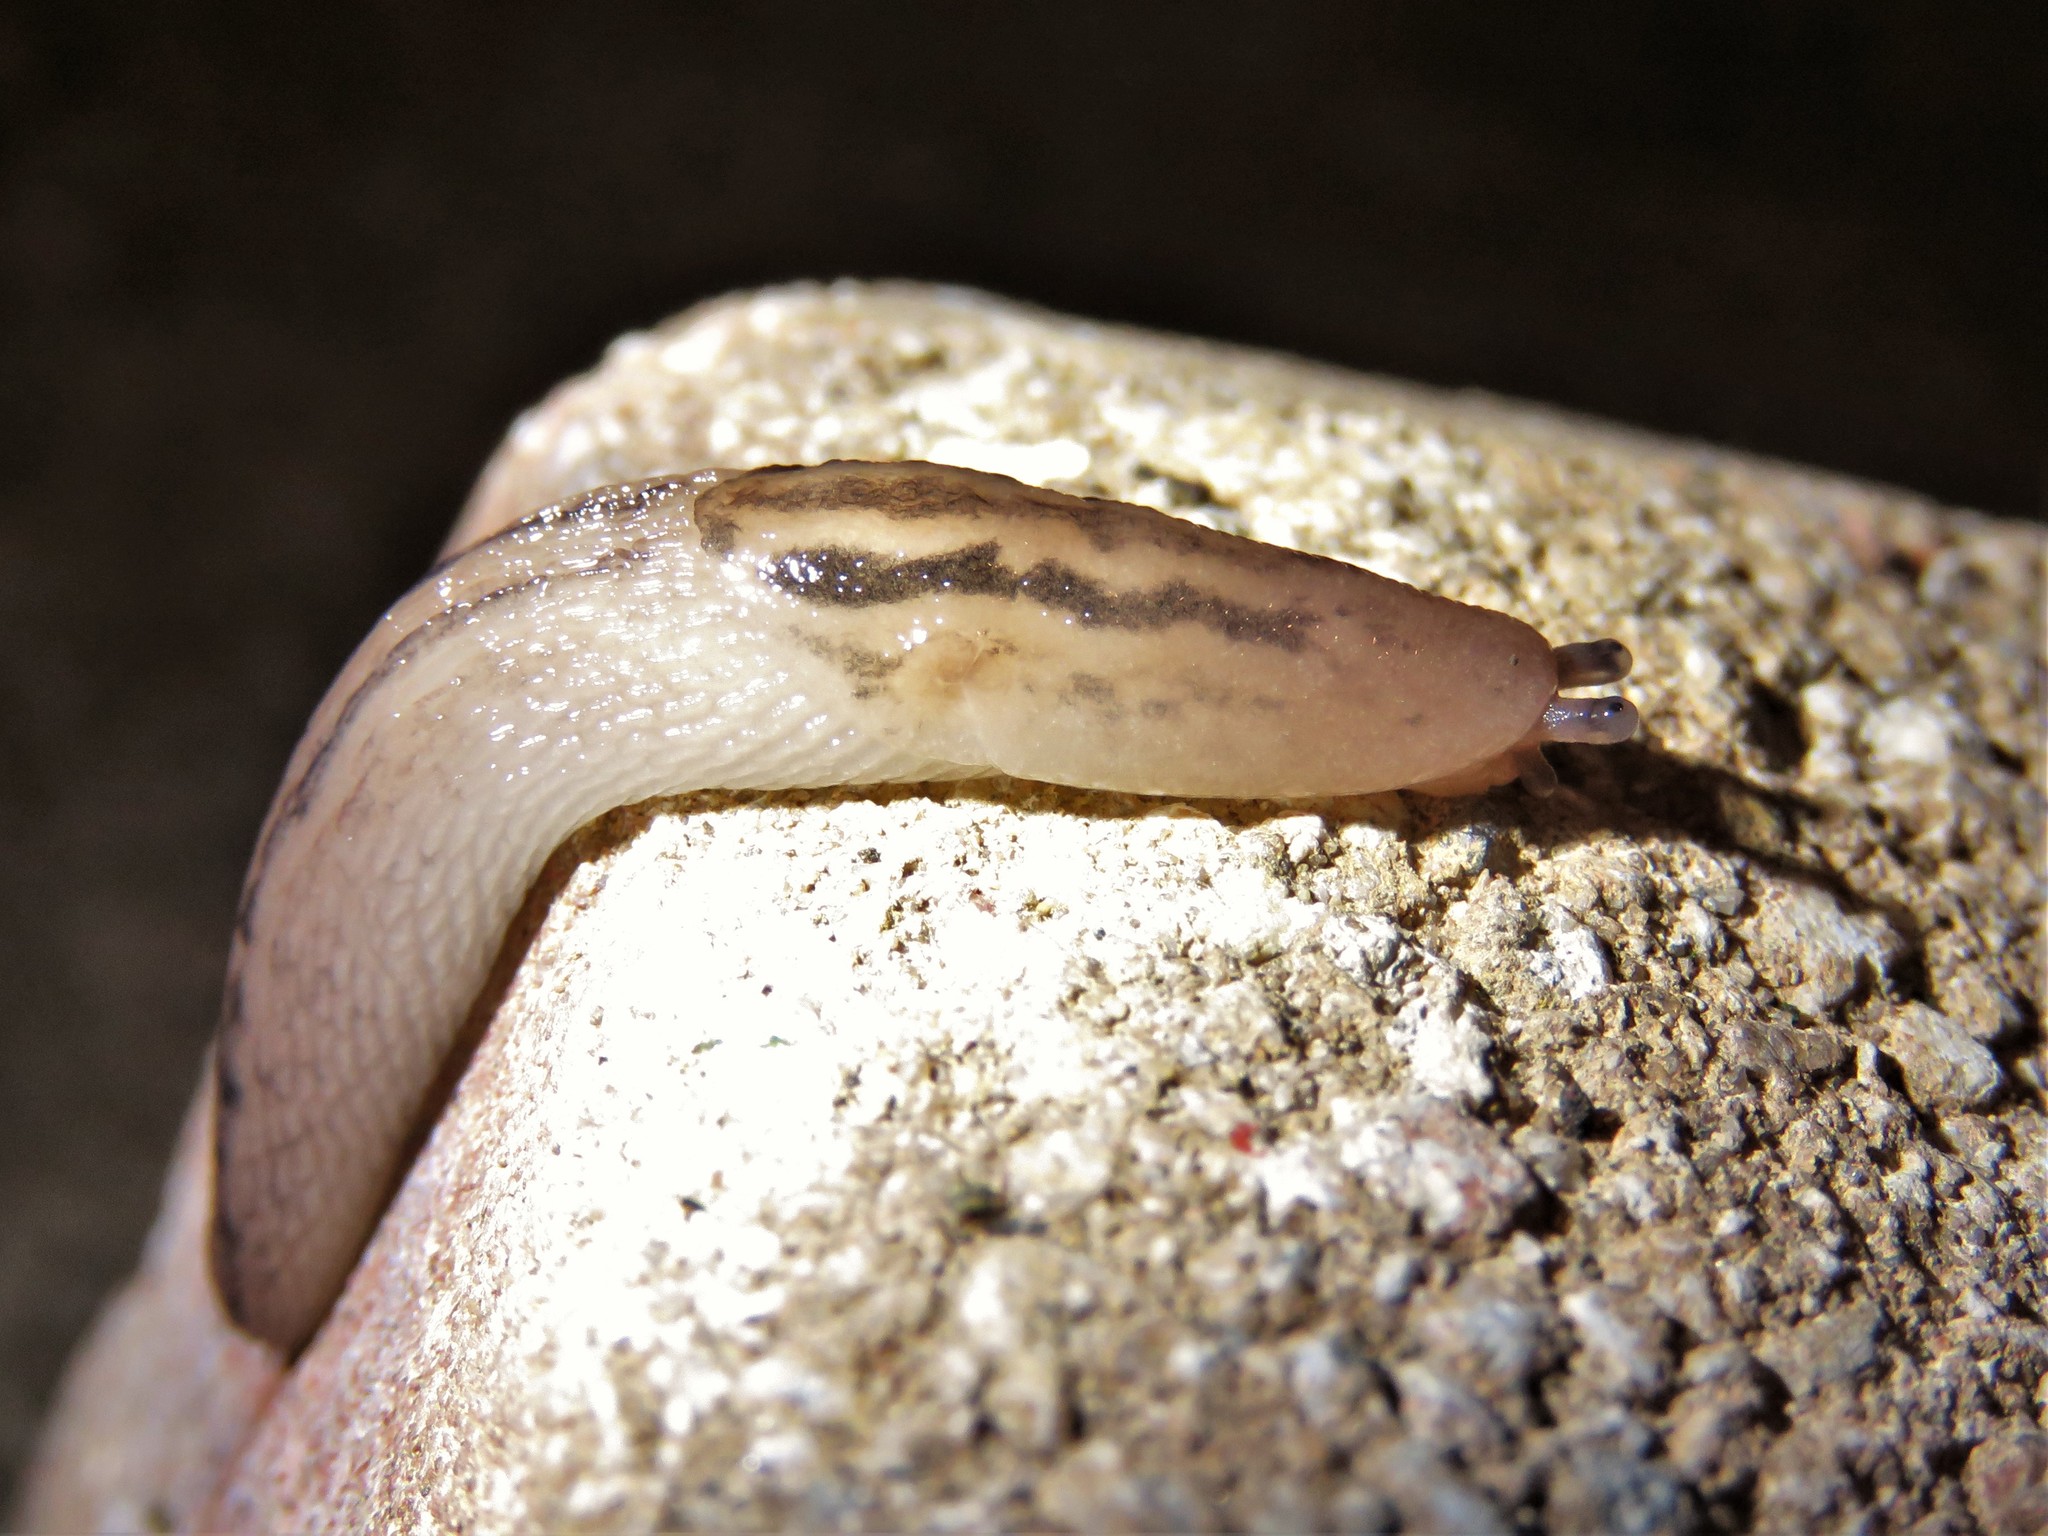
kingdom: Animalia
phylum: Mollusca
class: Gastropoda
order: Stylommatophora
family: Limacidae
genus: Ambigolimax
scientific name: Ambigolimax valentianus
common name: Greenhouse slug
